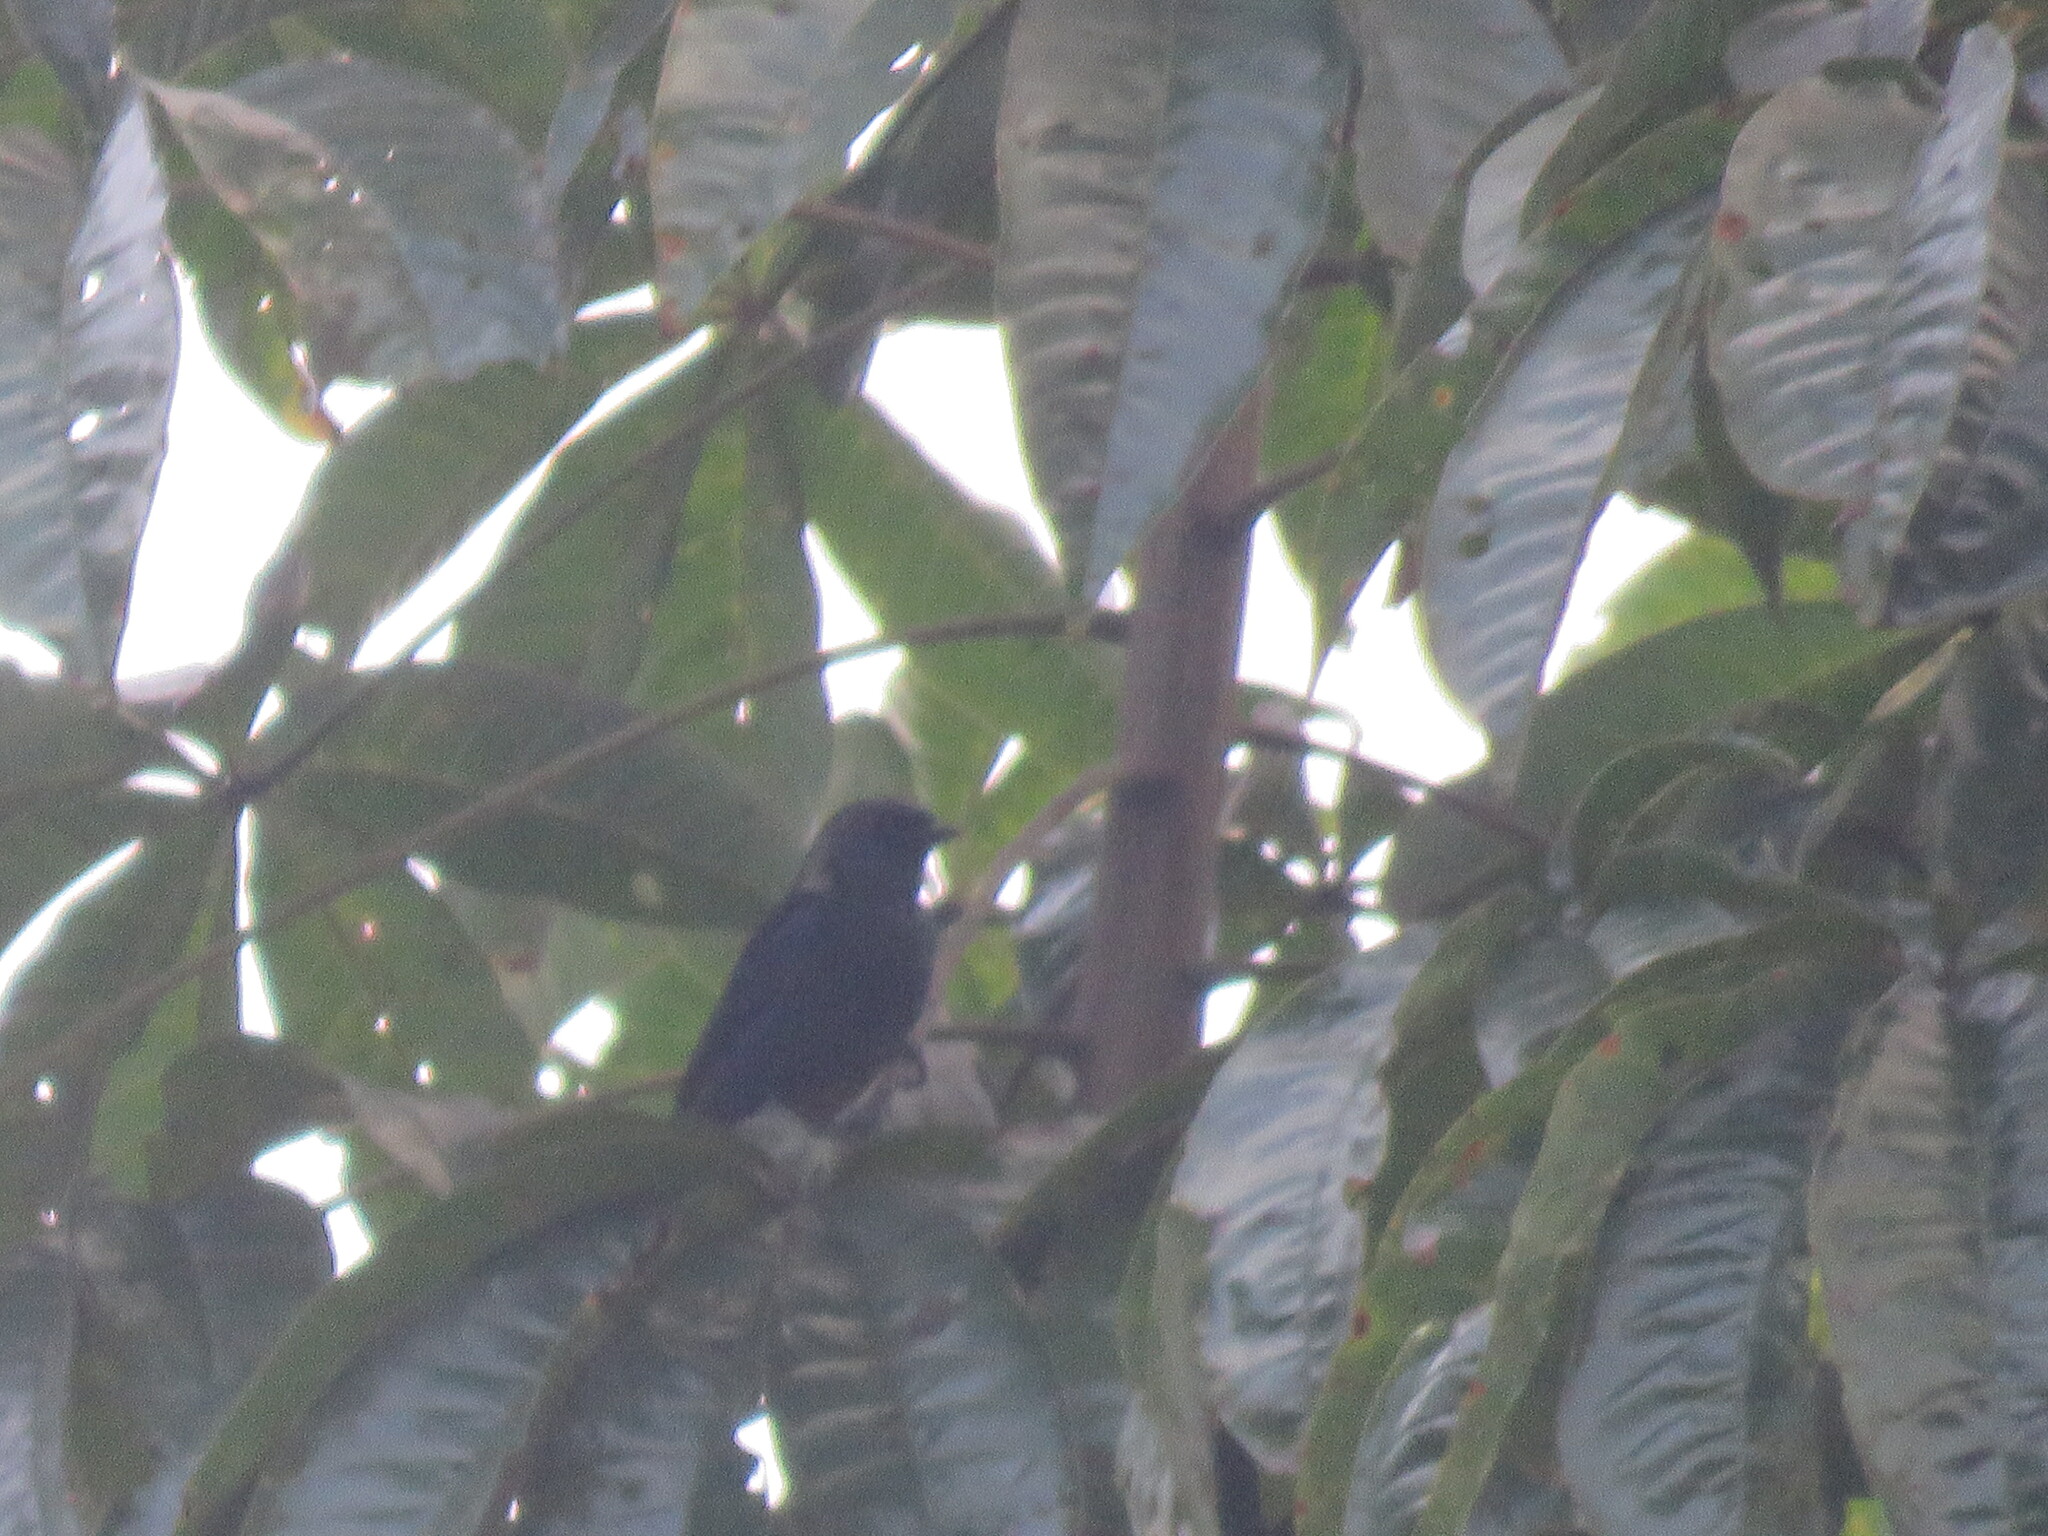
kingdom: Animalia
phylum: Chordata
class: Aves
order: Passeriformes
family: Thraupidae
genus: Tangara
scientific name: Tangara velia
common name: Opal-rumped tanager
